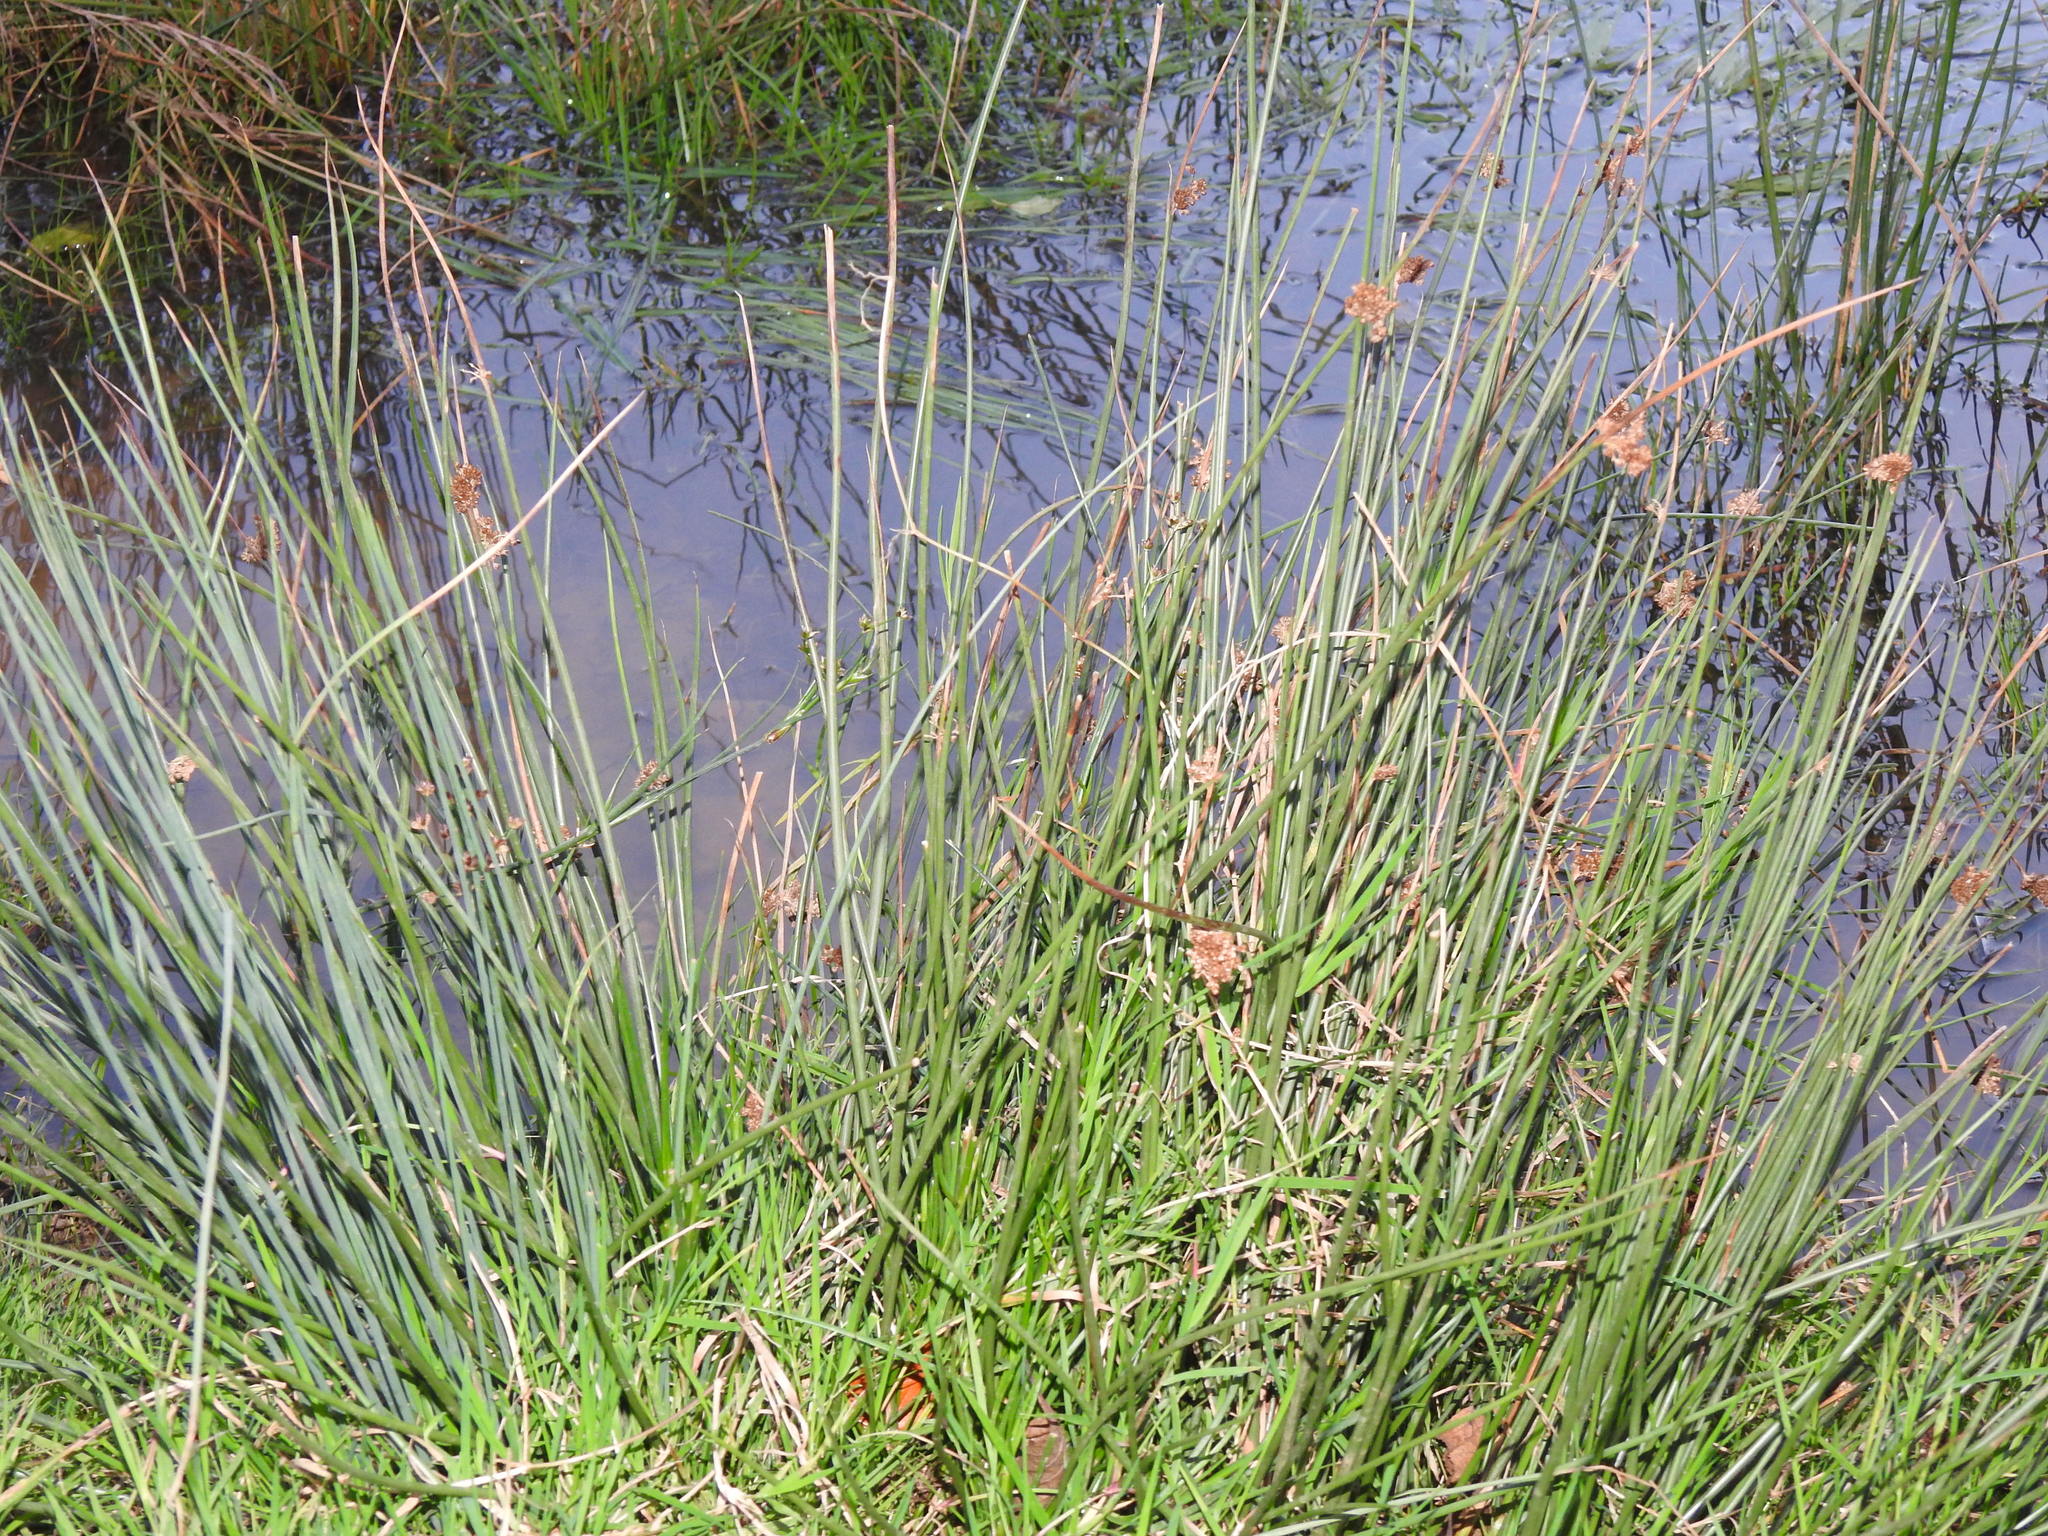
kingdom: Plantae
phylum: Tracheophyta
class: Liliopsida
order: Poales
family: Juncaceae
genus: Juncus
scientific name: Juncus effusus
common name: Soft rush
